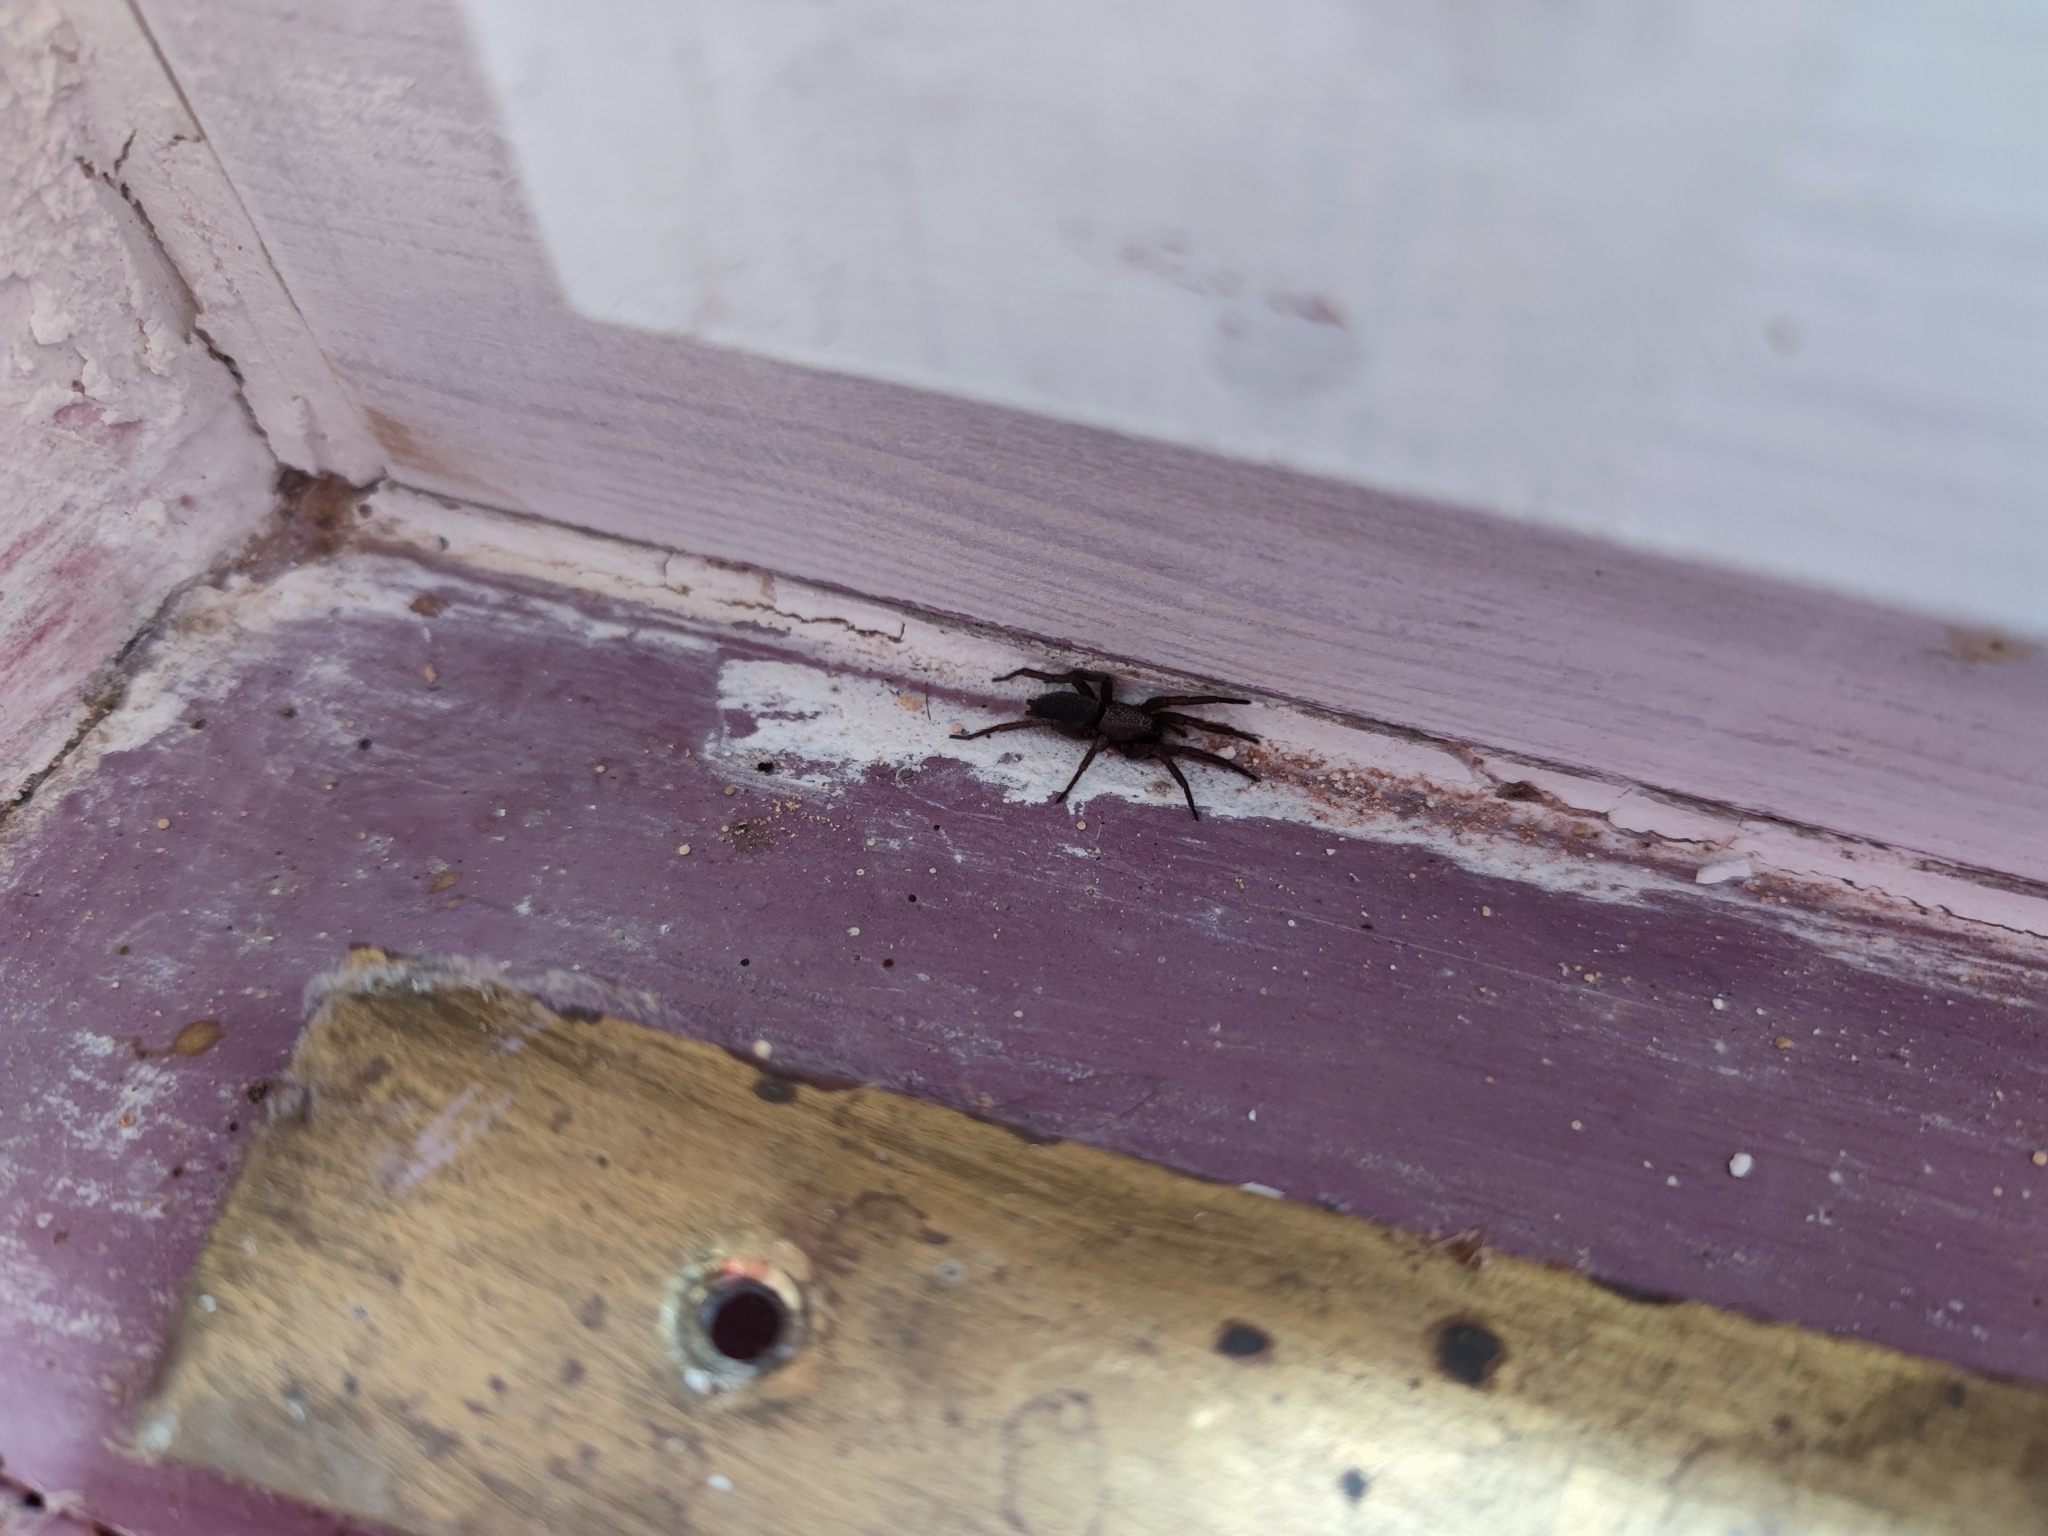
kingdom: Animalia
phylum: Arthropoda
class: Arachnida
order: Araneae
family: Gnaphosidae
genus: Scotophaeus
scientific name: Scotophaeus
